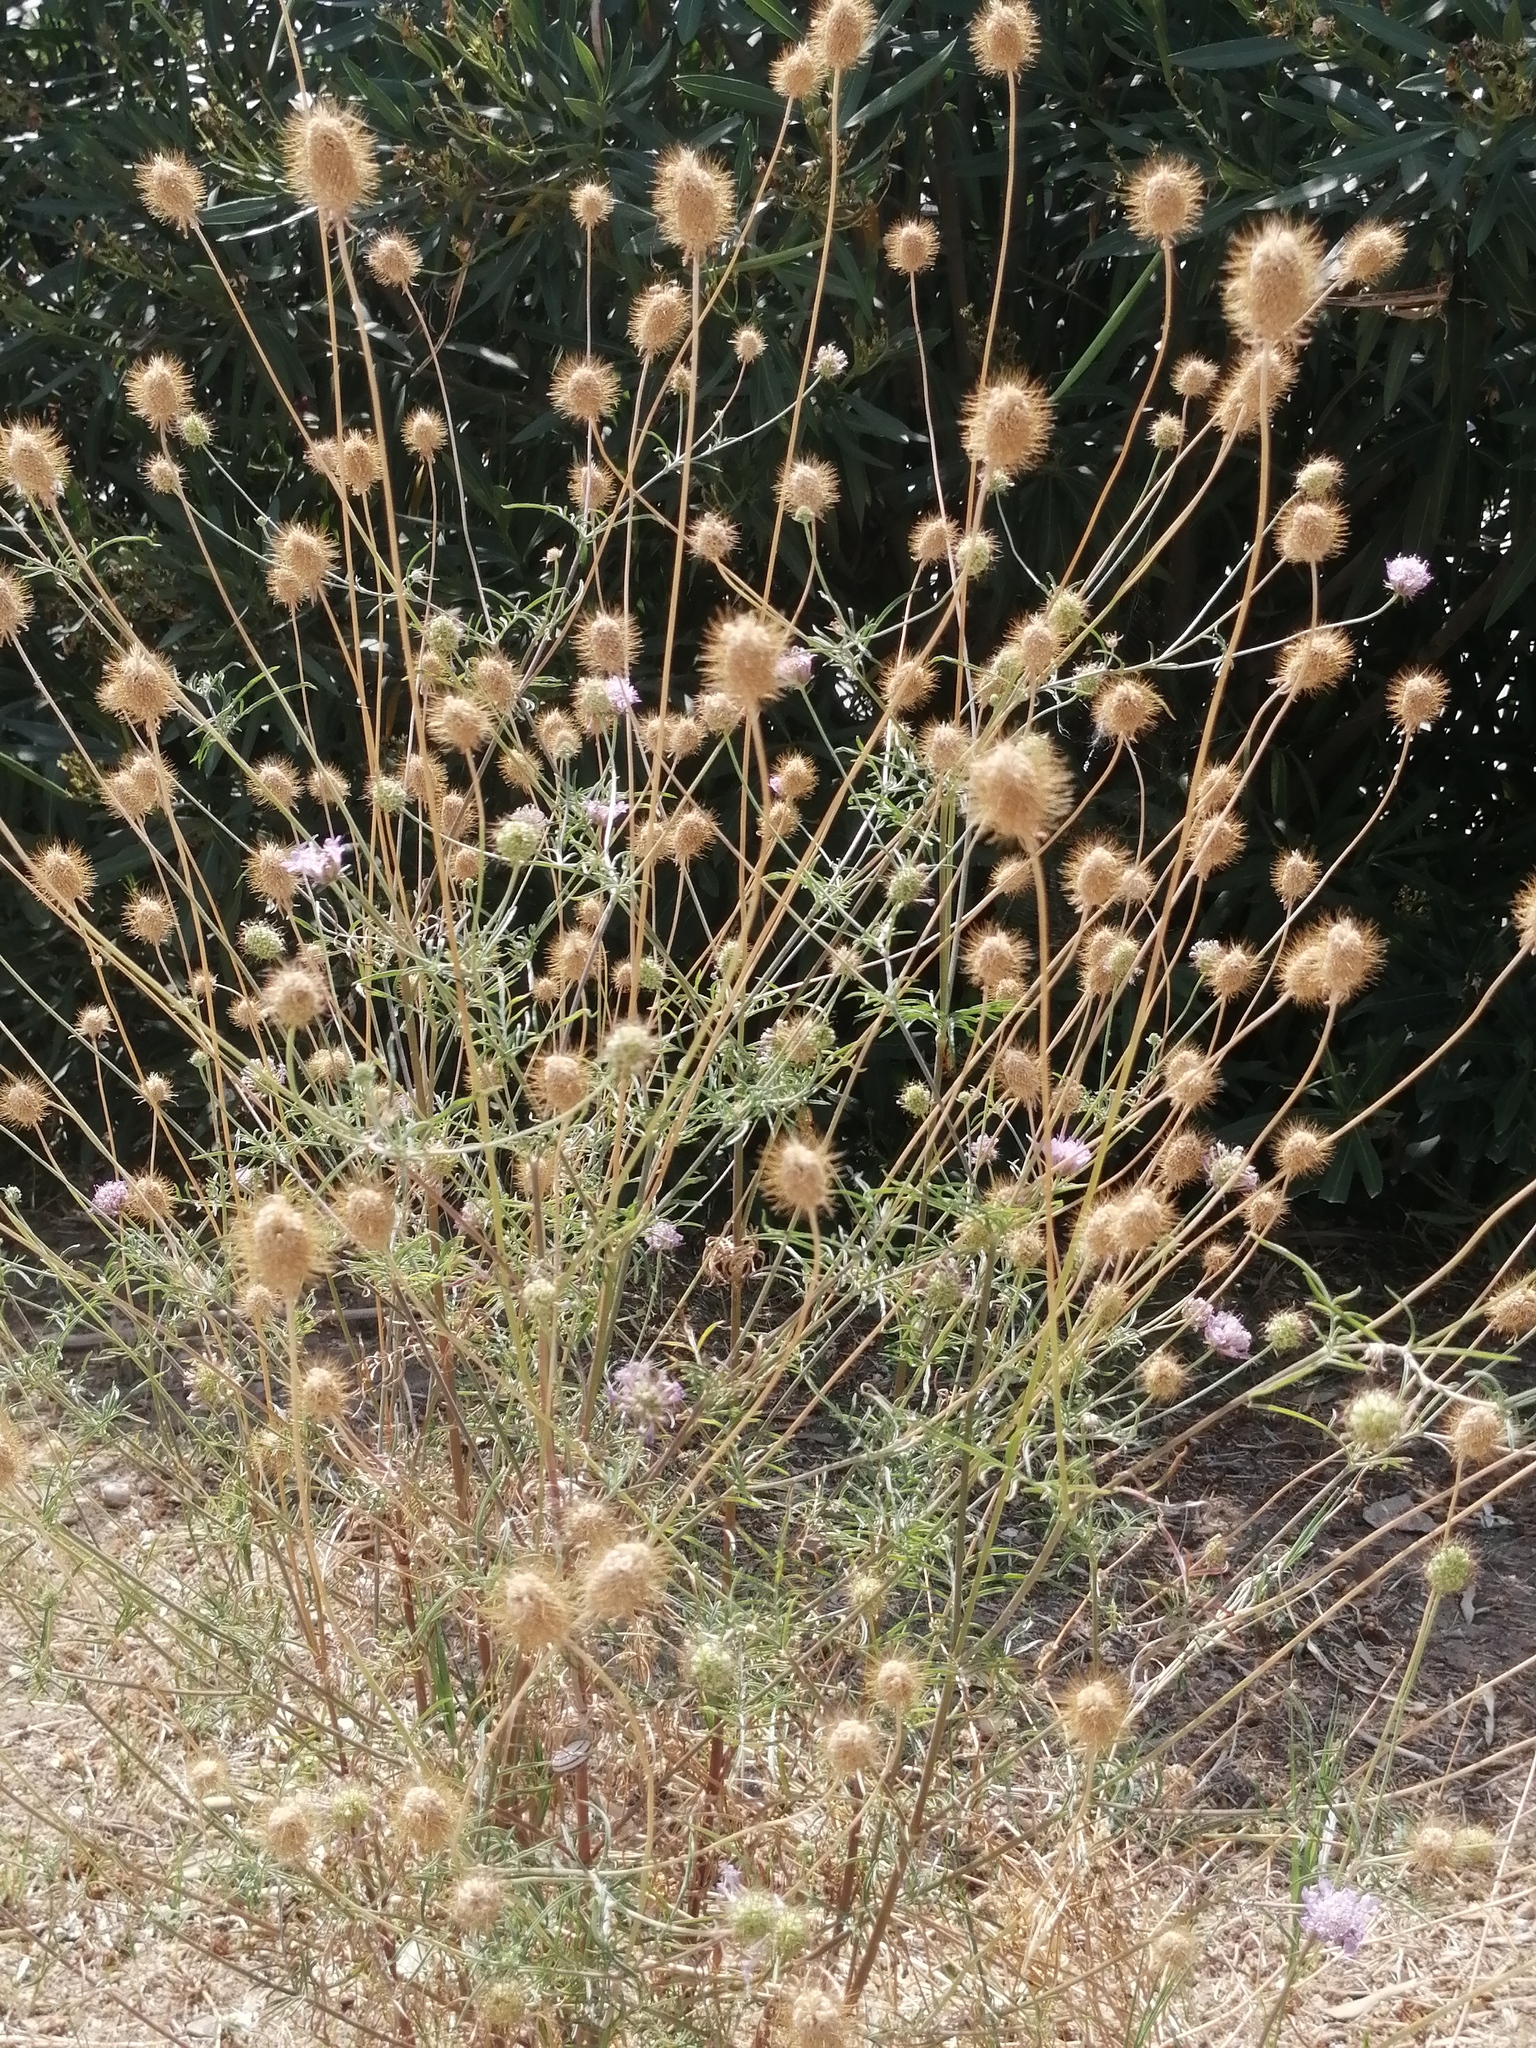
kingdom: Plantae
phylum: Tracheophyta
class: Magnoliopsida
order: Dipsacales
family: Caprifoliaceae
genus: Sixalix
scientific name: Sixalix atropurpurea
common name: Sweet scabious
